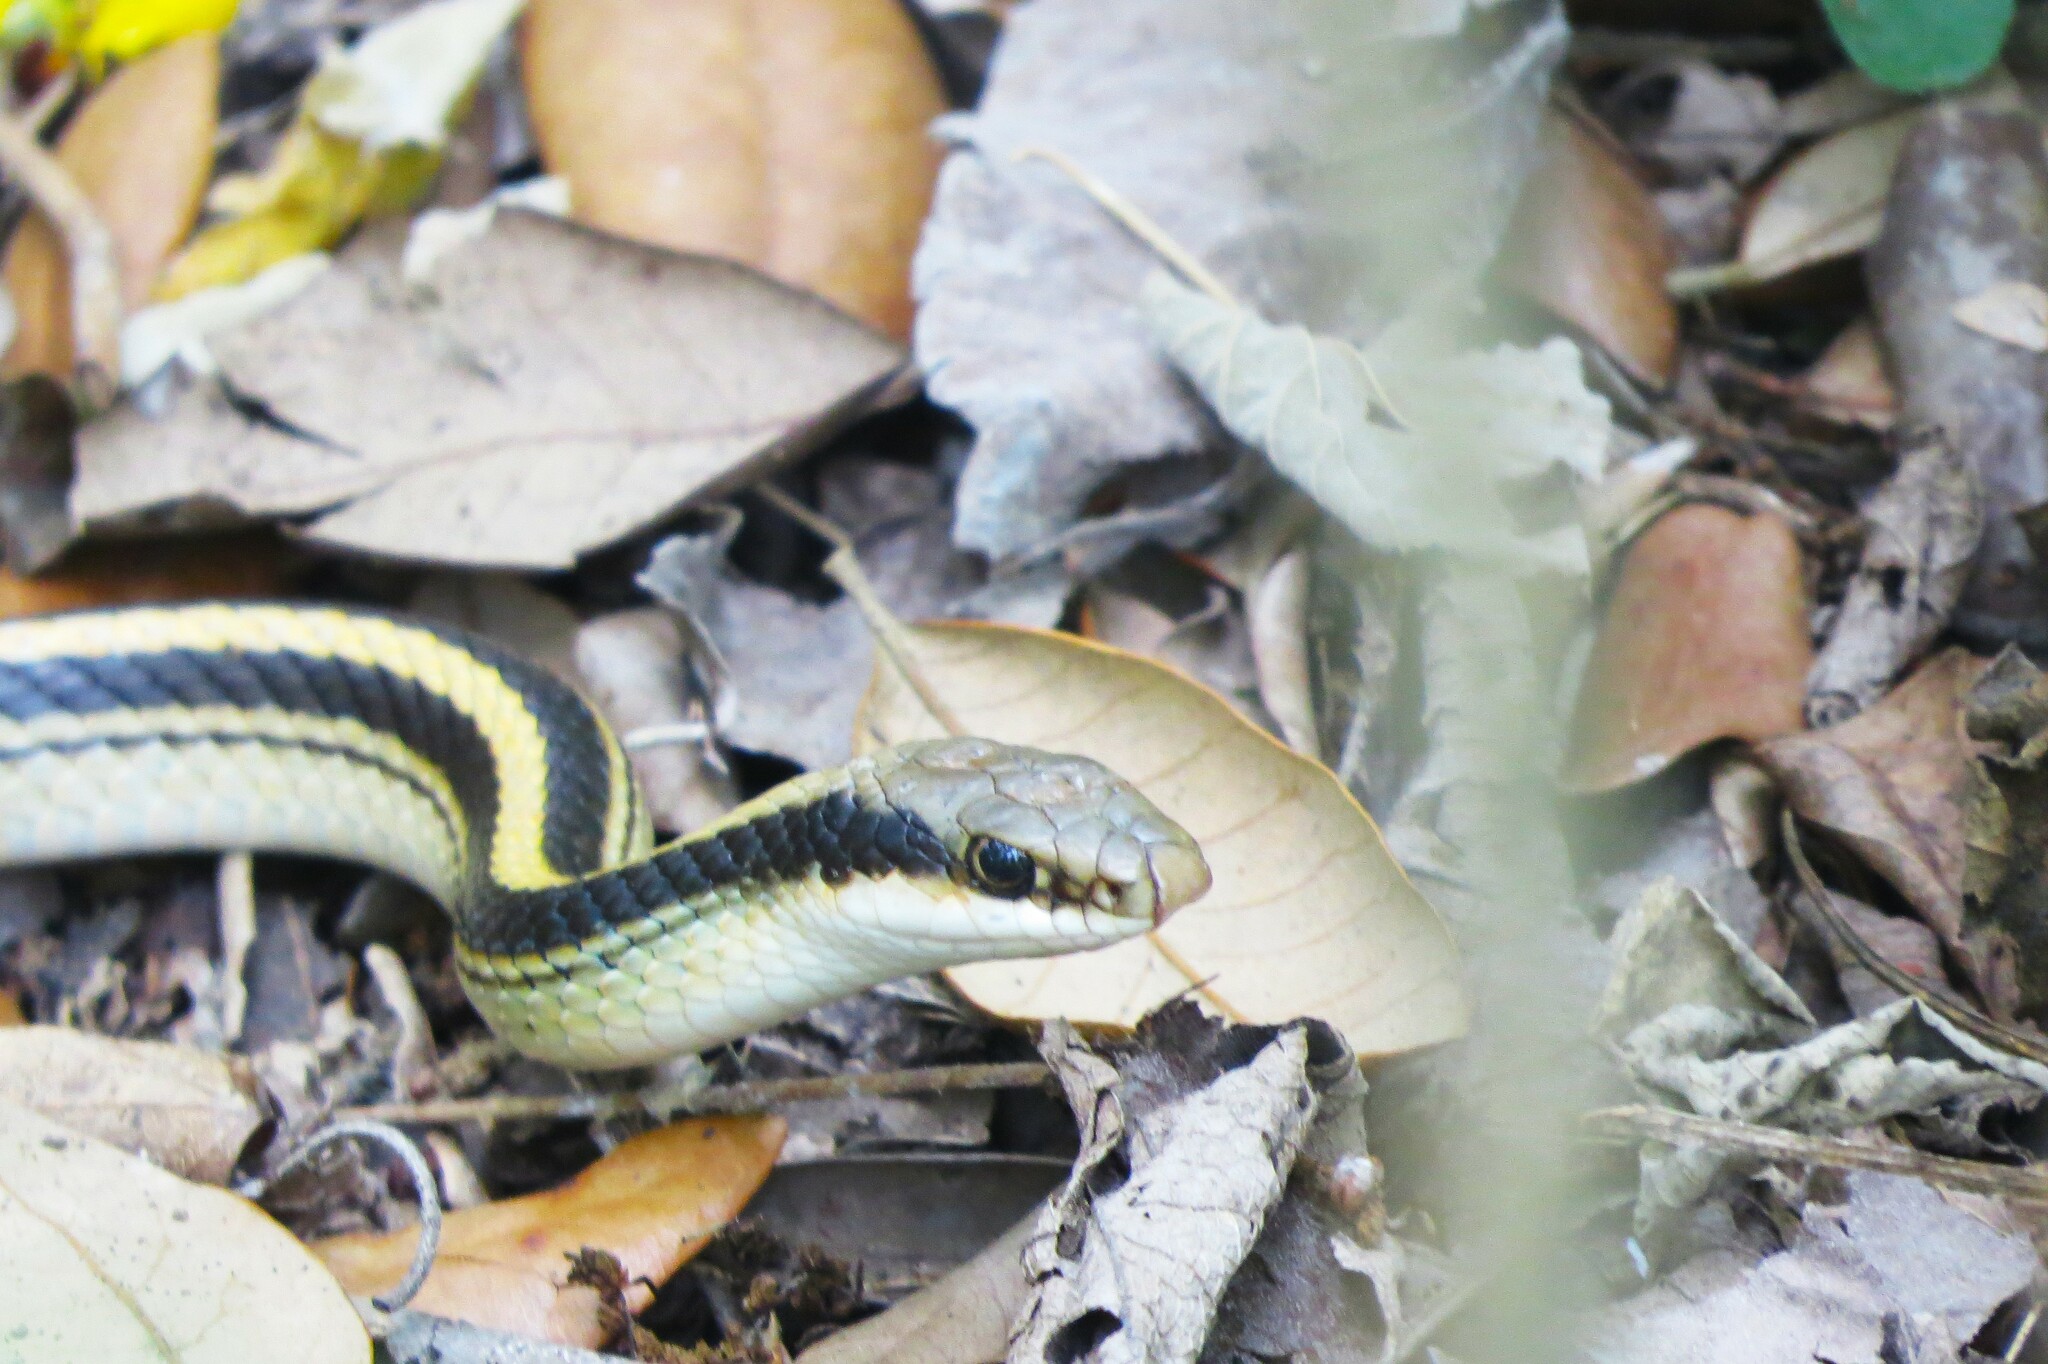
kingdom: Animalia
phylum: Chordata
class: Squamata
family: Colubridae
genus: Salvadora
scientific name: Salvadora lineata
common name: Texas patchnose snake
